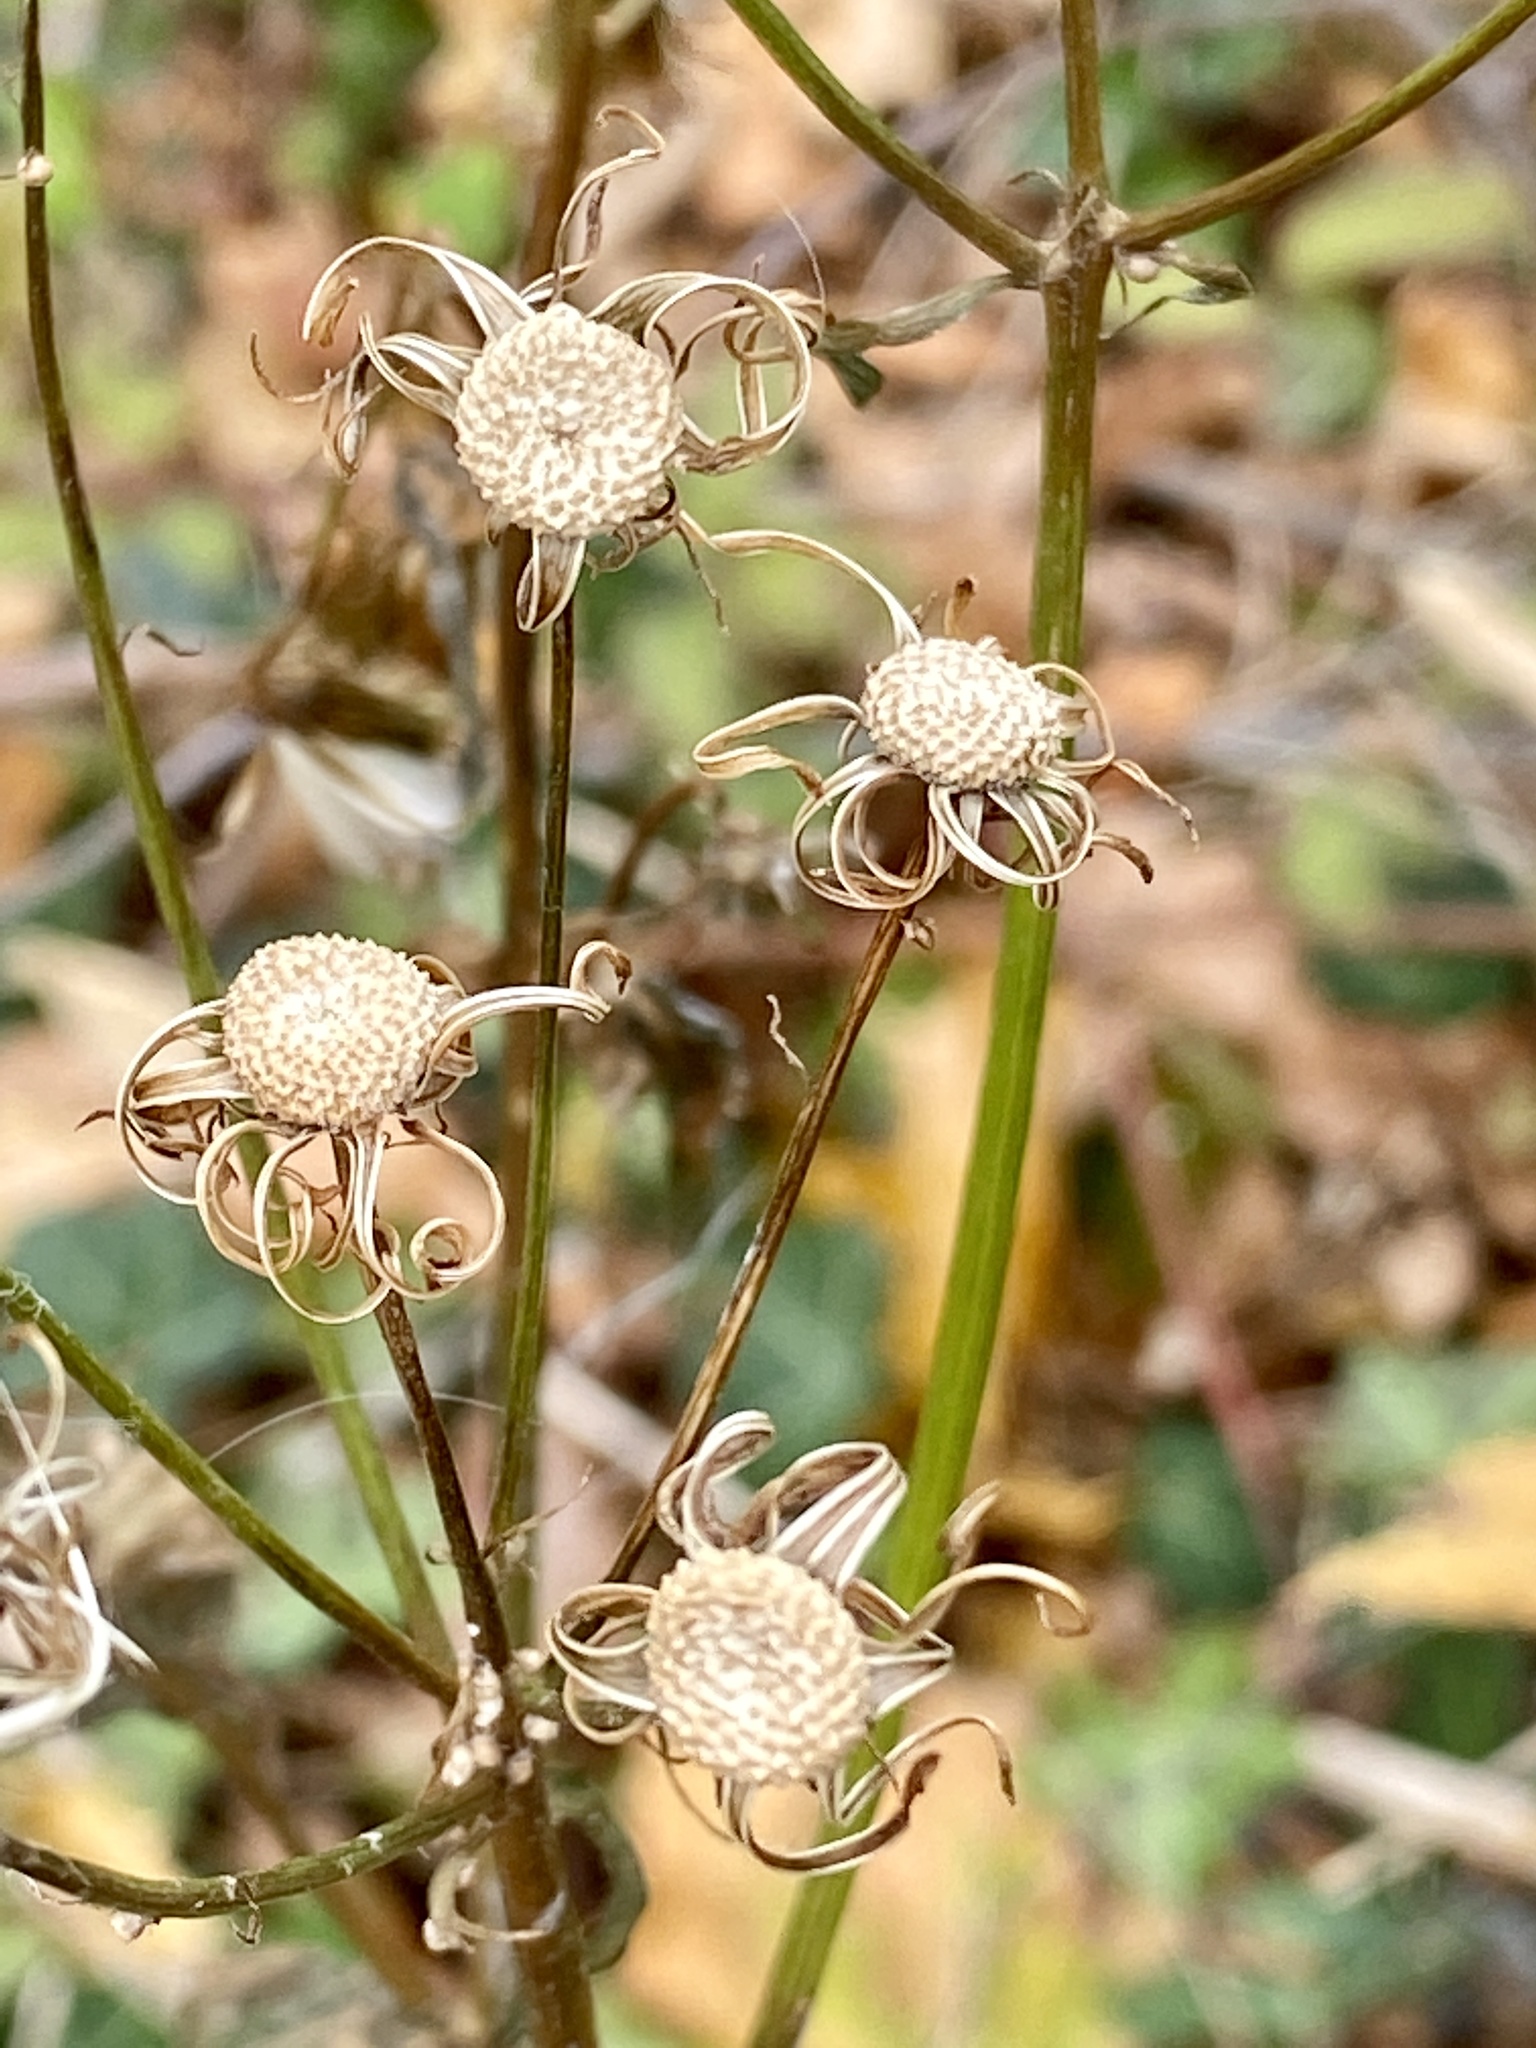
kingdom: Plantae
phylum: Tracheophyta
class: Magnoliopsida
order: Asterales
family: Asteraceae
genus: Erechtites
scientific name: Erechtites hieraciifolius
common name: American burnweed
